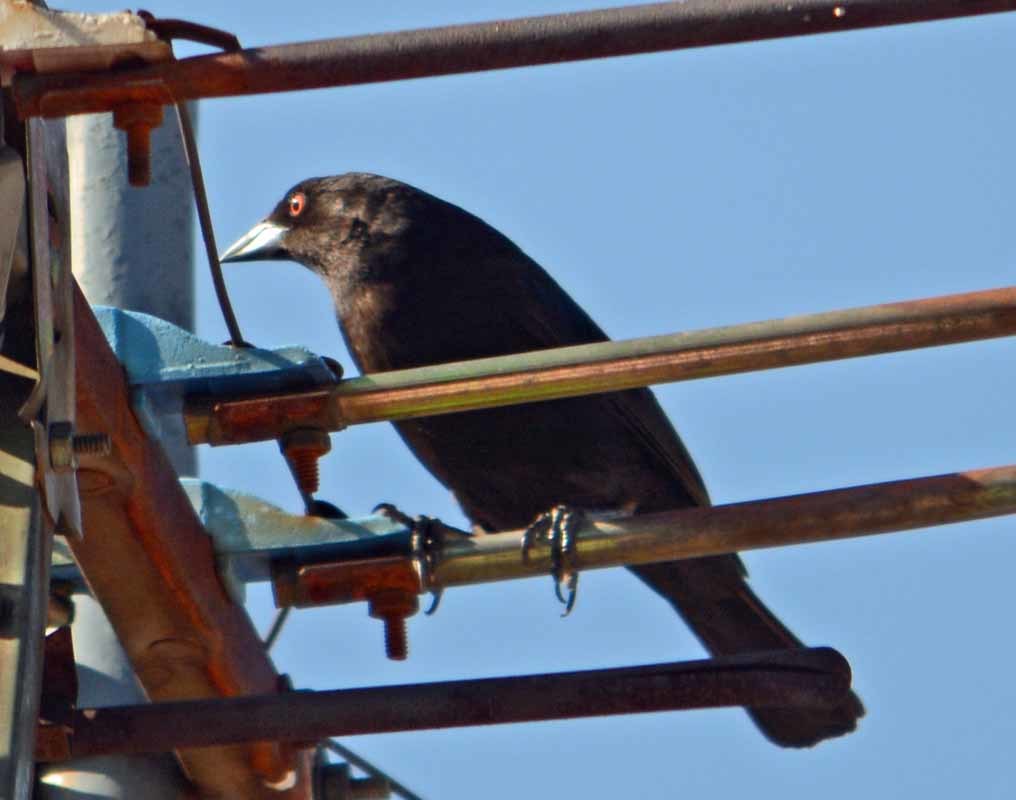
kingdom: Animalia
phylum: Chordata
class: Aves
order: Passeriformes
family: Icteridae
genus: Molothrus
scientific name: Molothrus aeneus
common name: Bronzed cowbird
